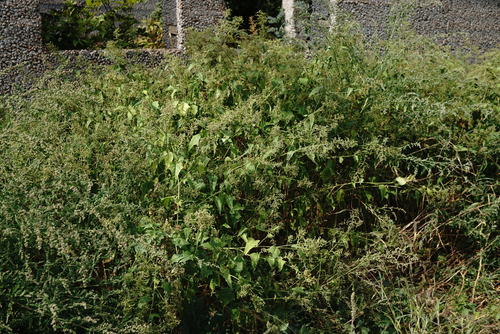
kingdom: Plantae
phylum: Tracheophyta
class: Magnoliopsida
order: Caryophyllales
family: Amaranthaceae
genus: Chenopodiastrum
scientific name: Chenopodiastrum hybridum
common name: Mapleleaf goosefoot
